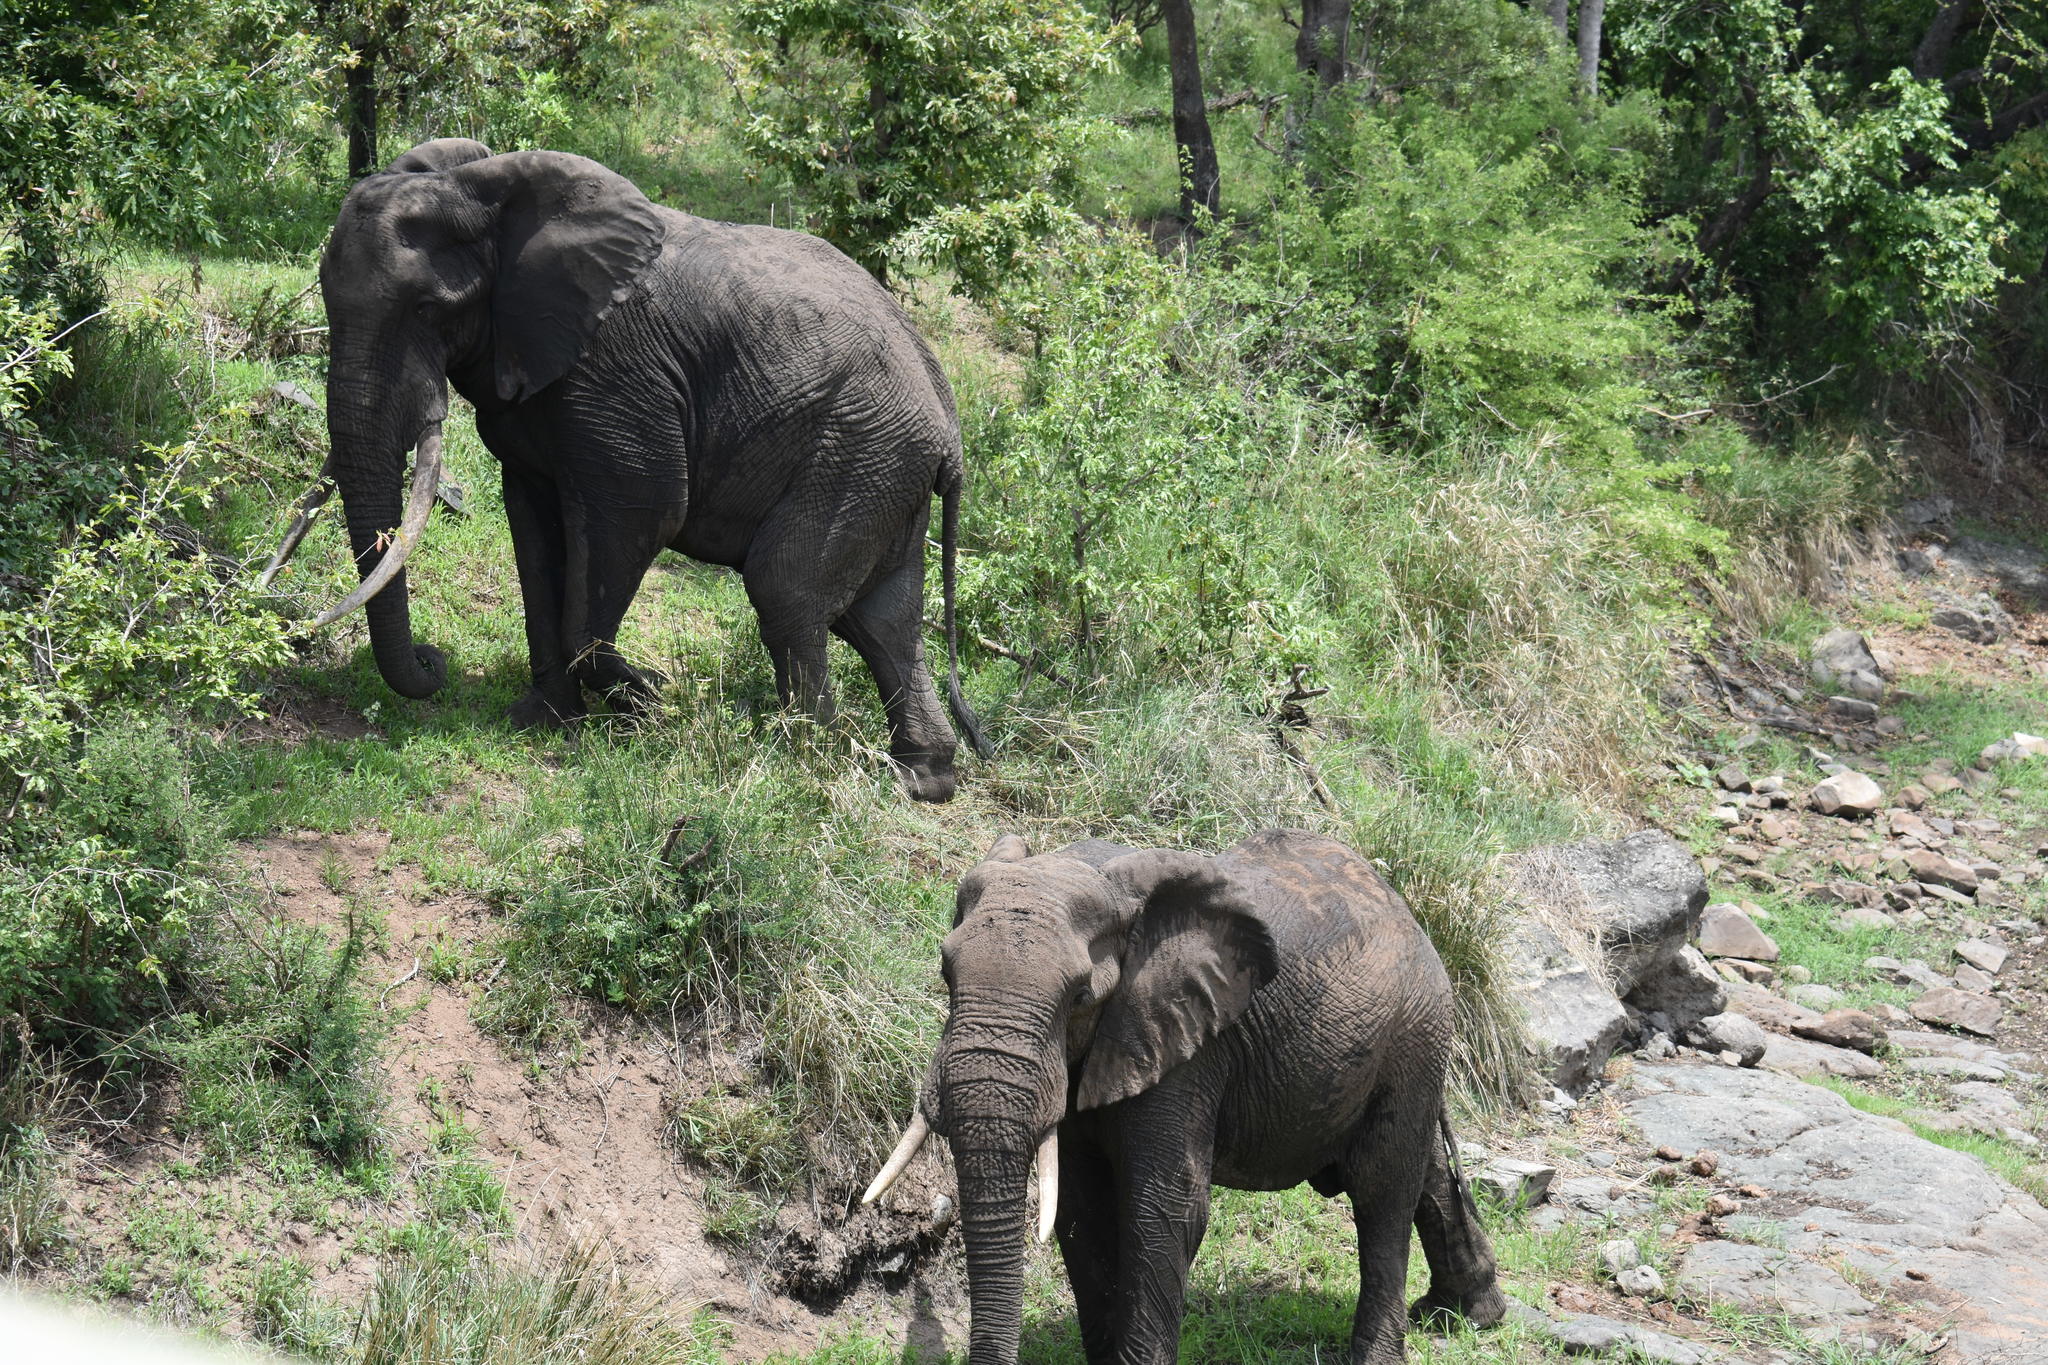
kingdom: Animalia
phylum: Chordata
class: Mammalia
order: Proboscidea
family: Elephantidae
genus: Loxodonta
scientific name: Loxodonta africana
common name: African elephant
